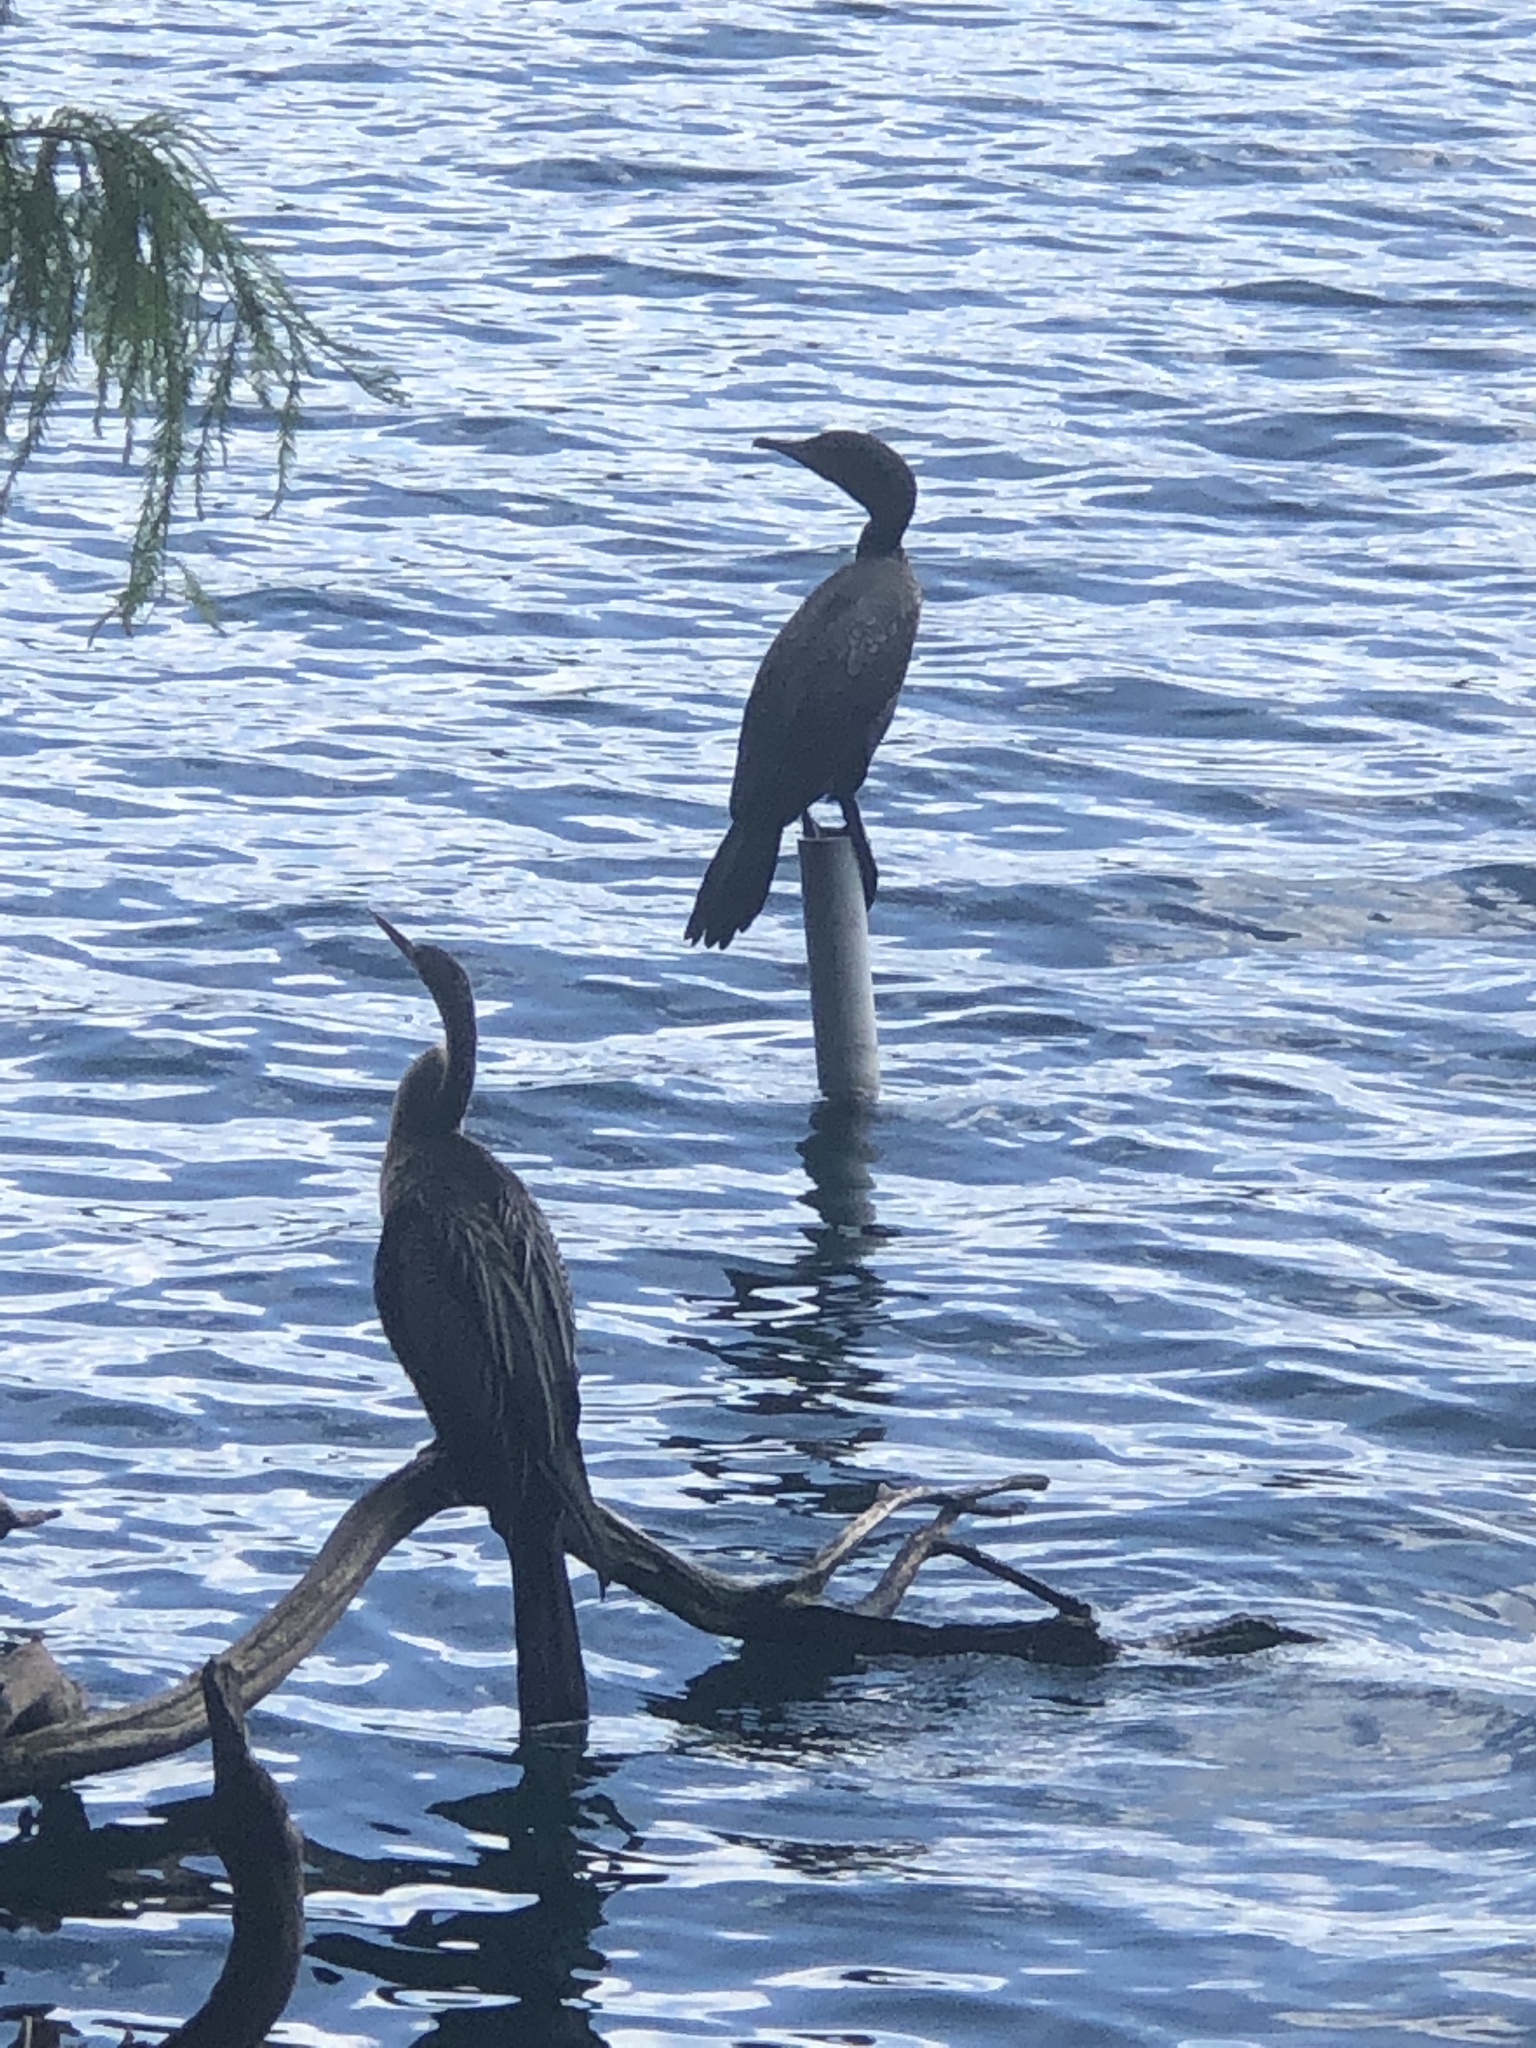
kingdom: Animalia
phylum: Chordata
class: Aves
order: Suliformes
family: Anhingidae
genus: Anhinga
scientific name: Anhinga anhinga
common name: Anhinga
